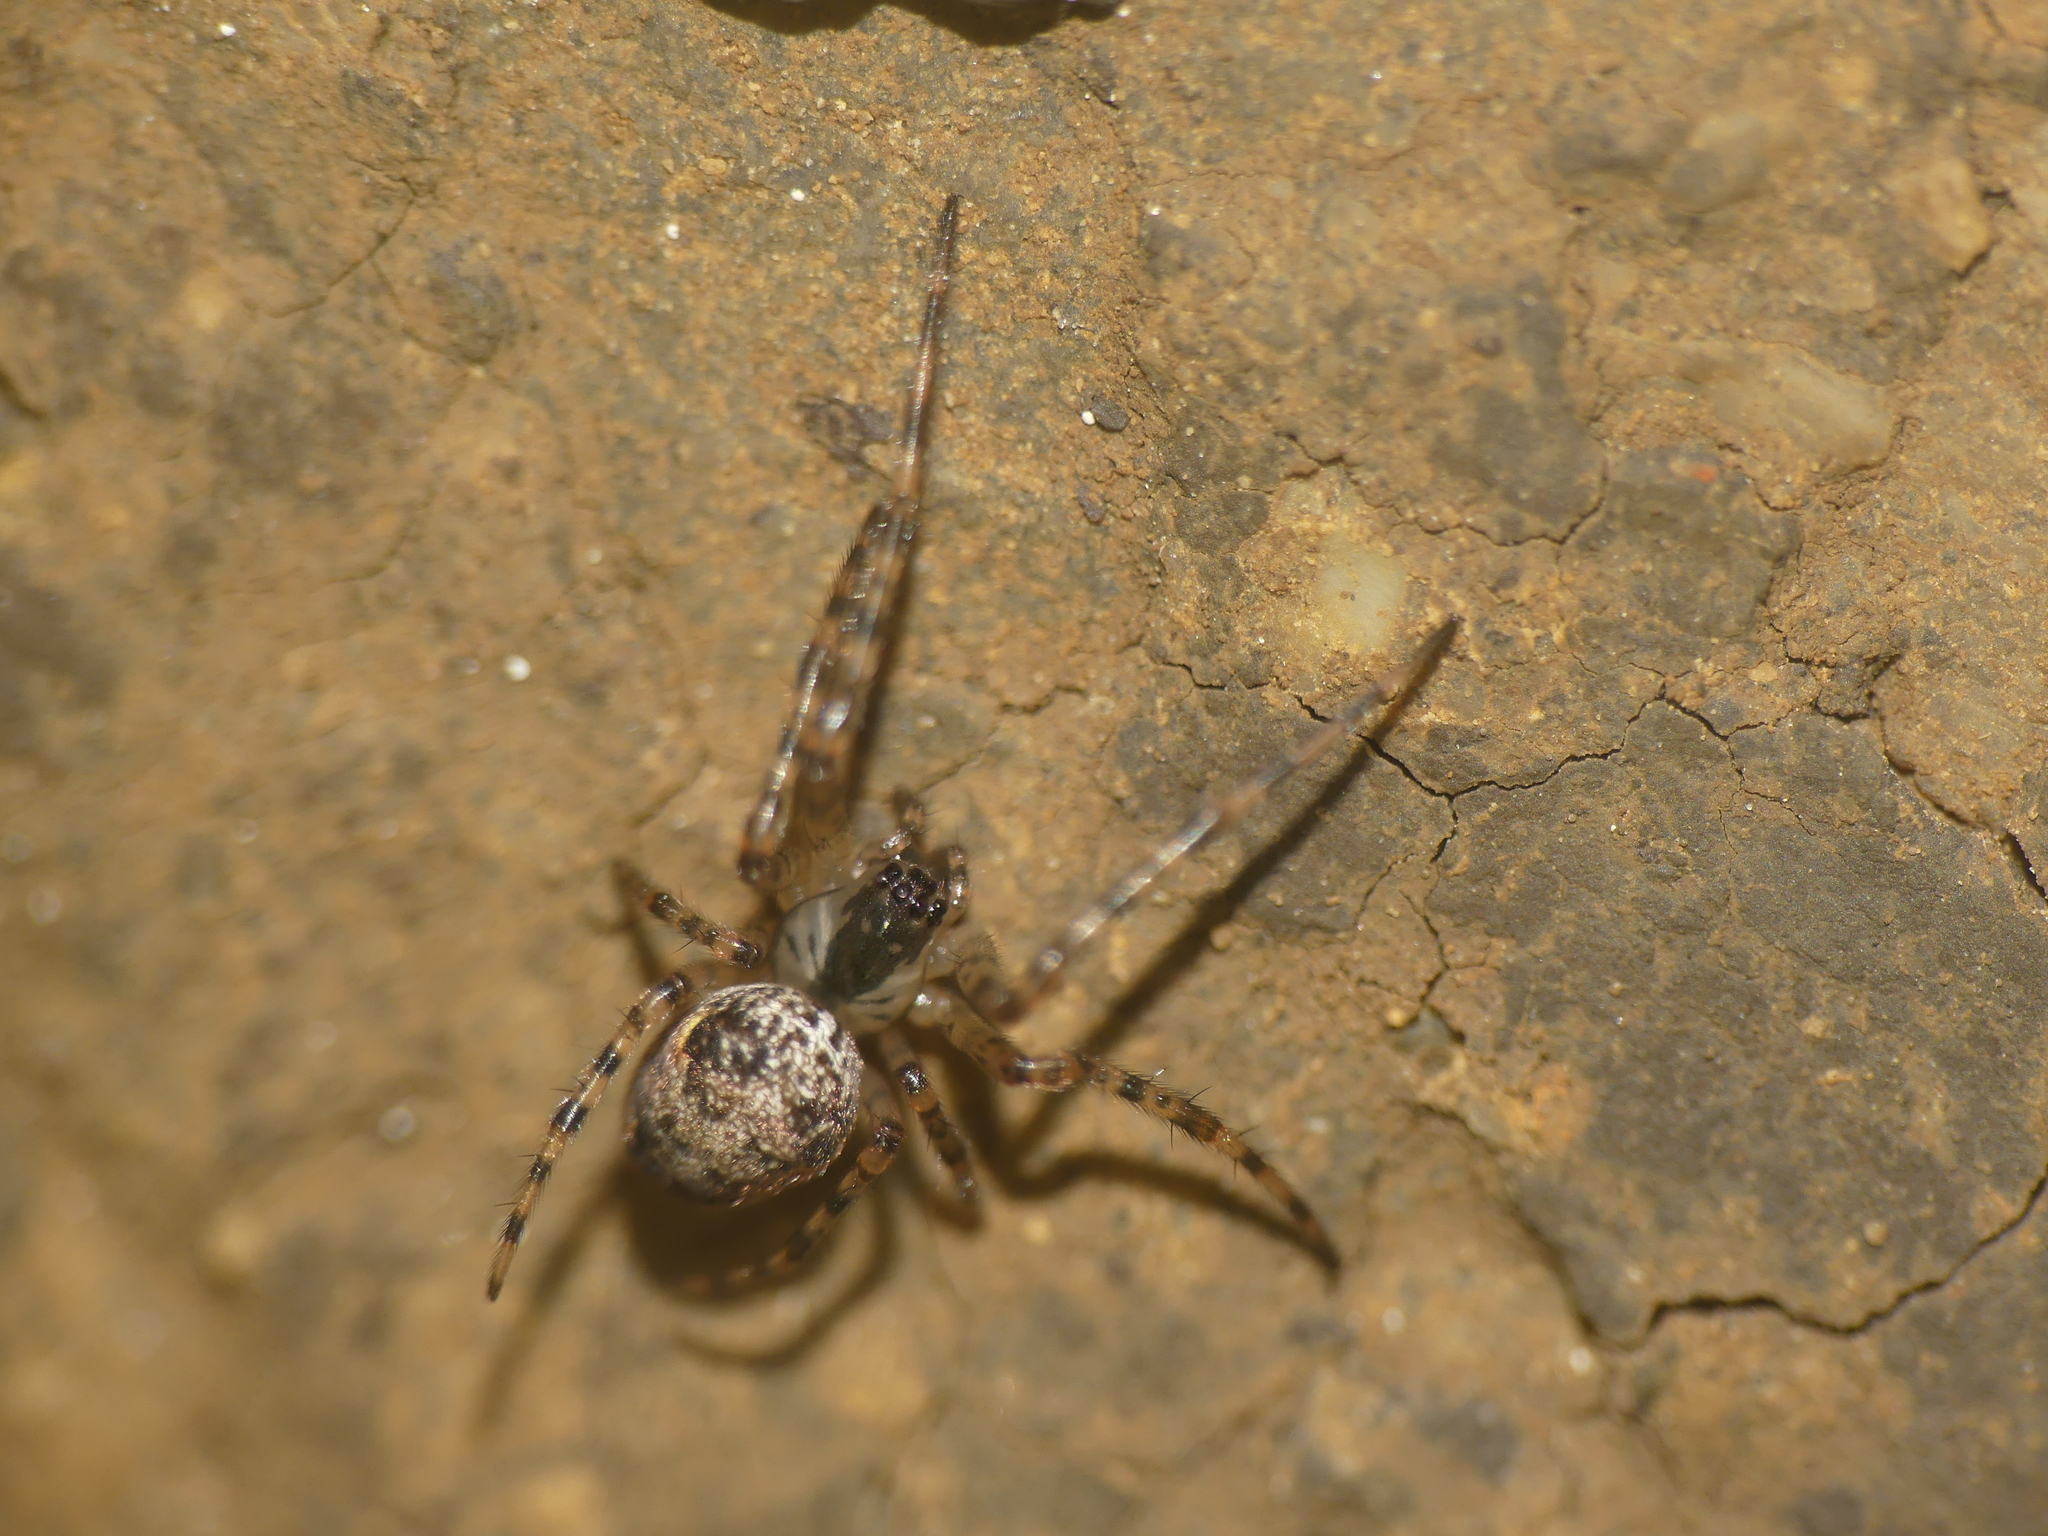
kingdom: Animalia
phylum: Arthropoda
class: Arachnida
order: Araneae
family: Tetragnathidae
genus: Metellina
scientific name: Metellina merianae
